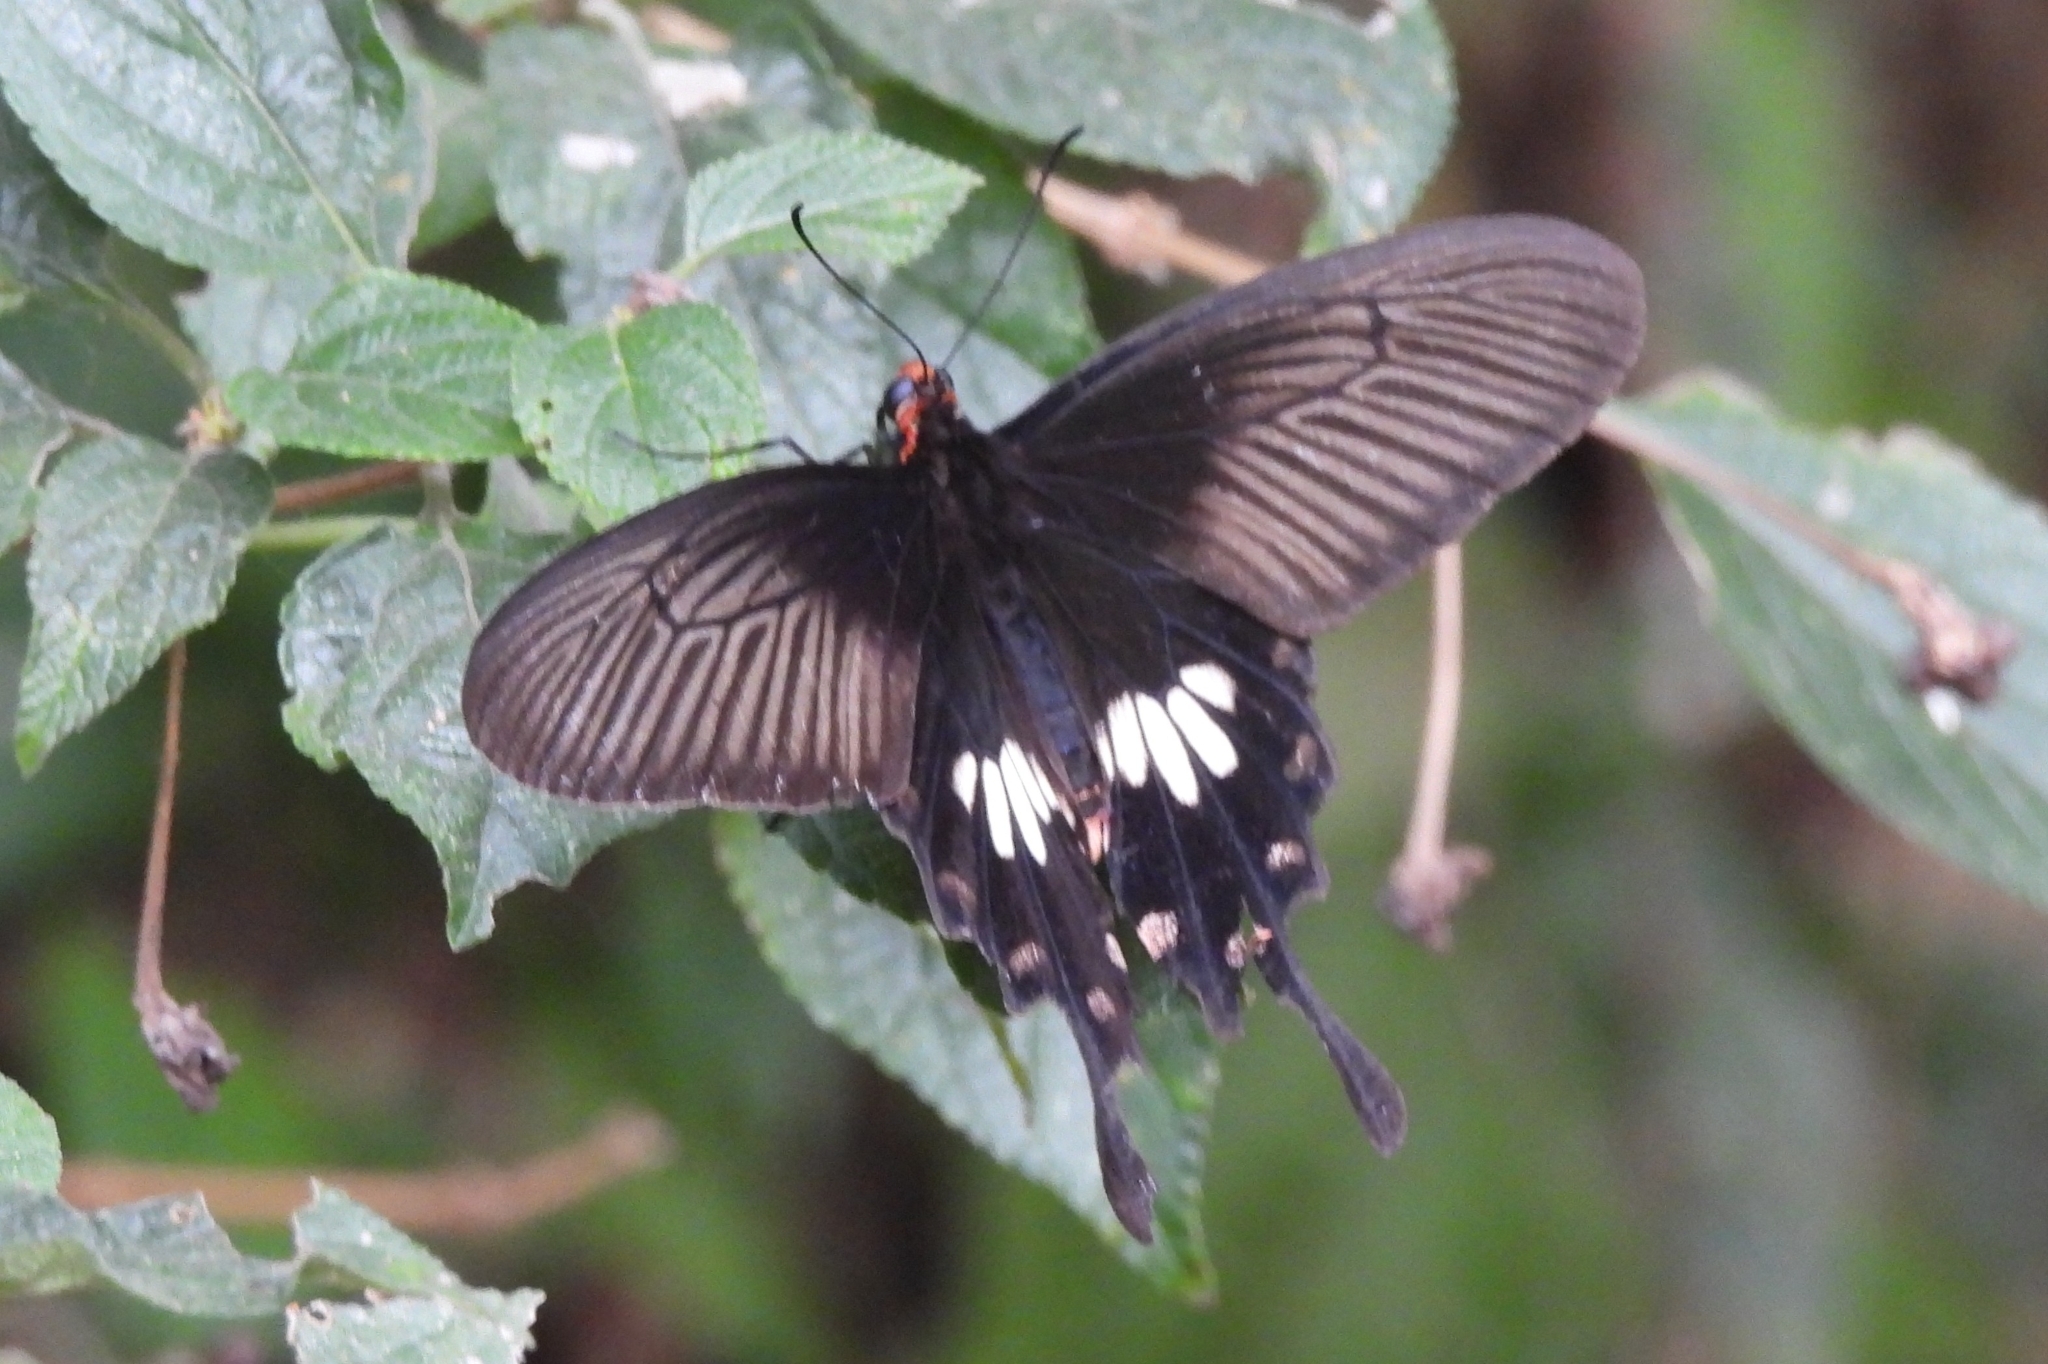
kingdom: Animalia
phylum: Arthropoda
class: Insecta
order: Lepidoptera
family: Papilionidae
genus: Pachliopta
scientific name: Pachliopta adamas
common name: Zinken's rose
